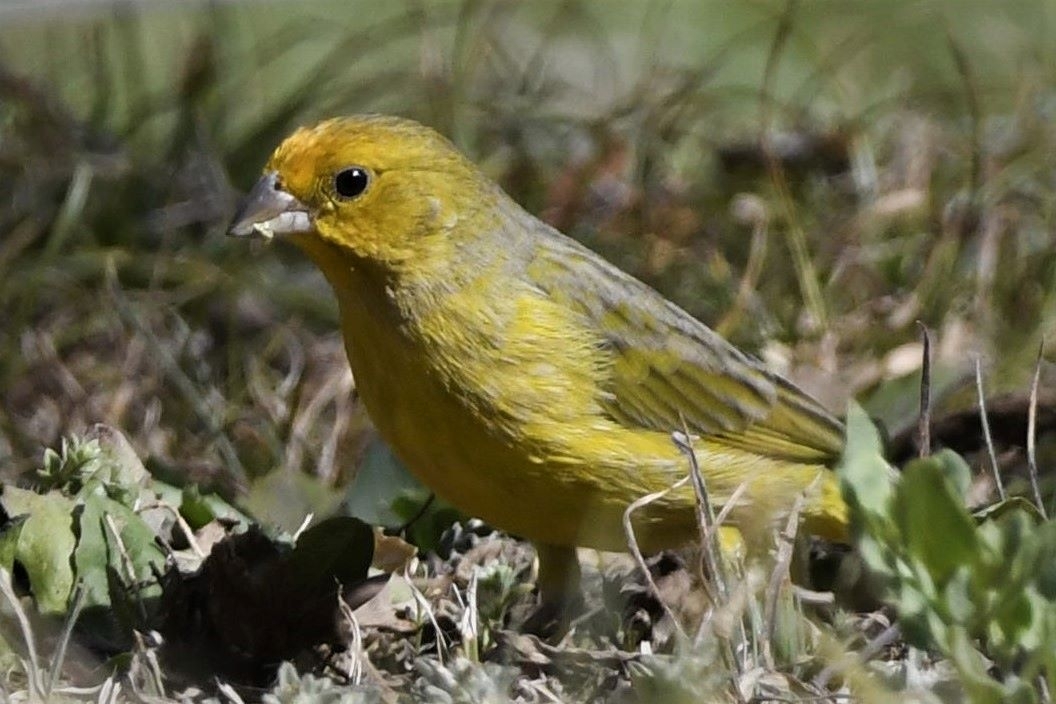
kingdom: Animalia
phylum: Chordata
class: Aves
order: Passeriformes
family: Thraupidae
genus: Sicalis
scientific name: Sicalis flaveola
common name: Saffron finch
